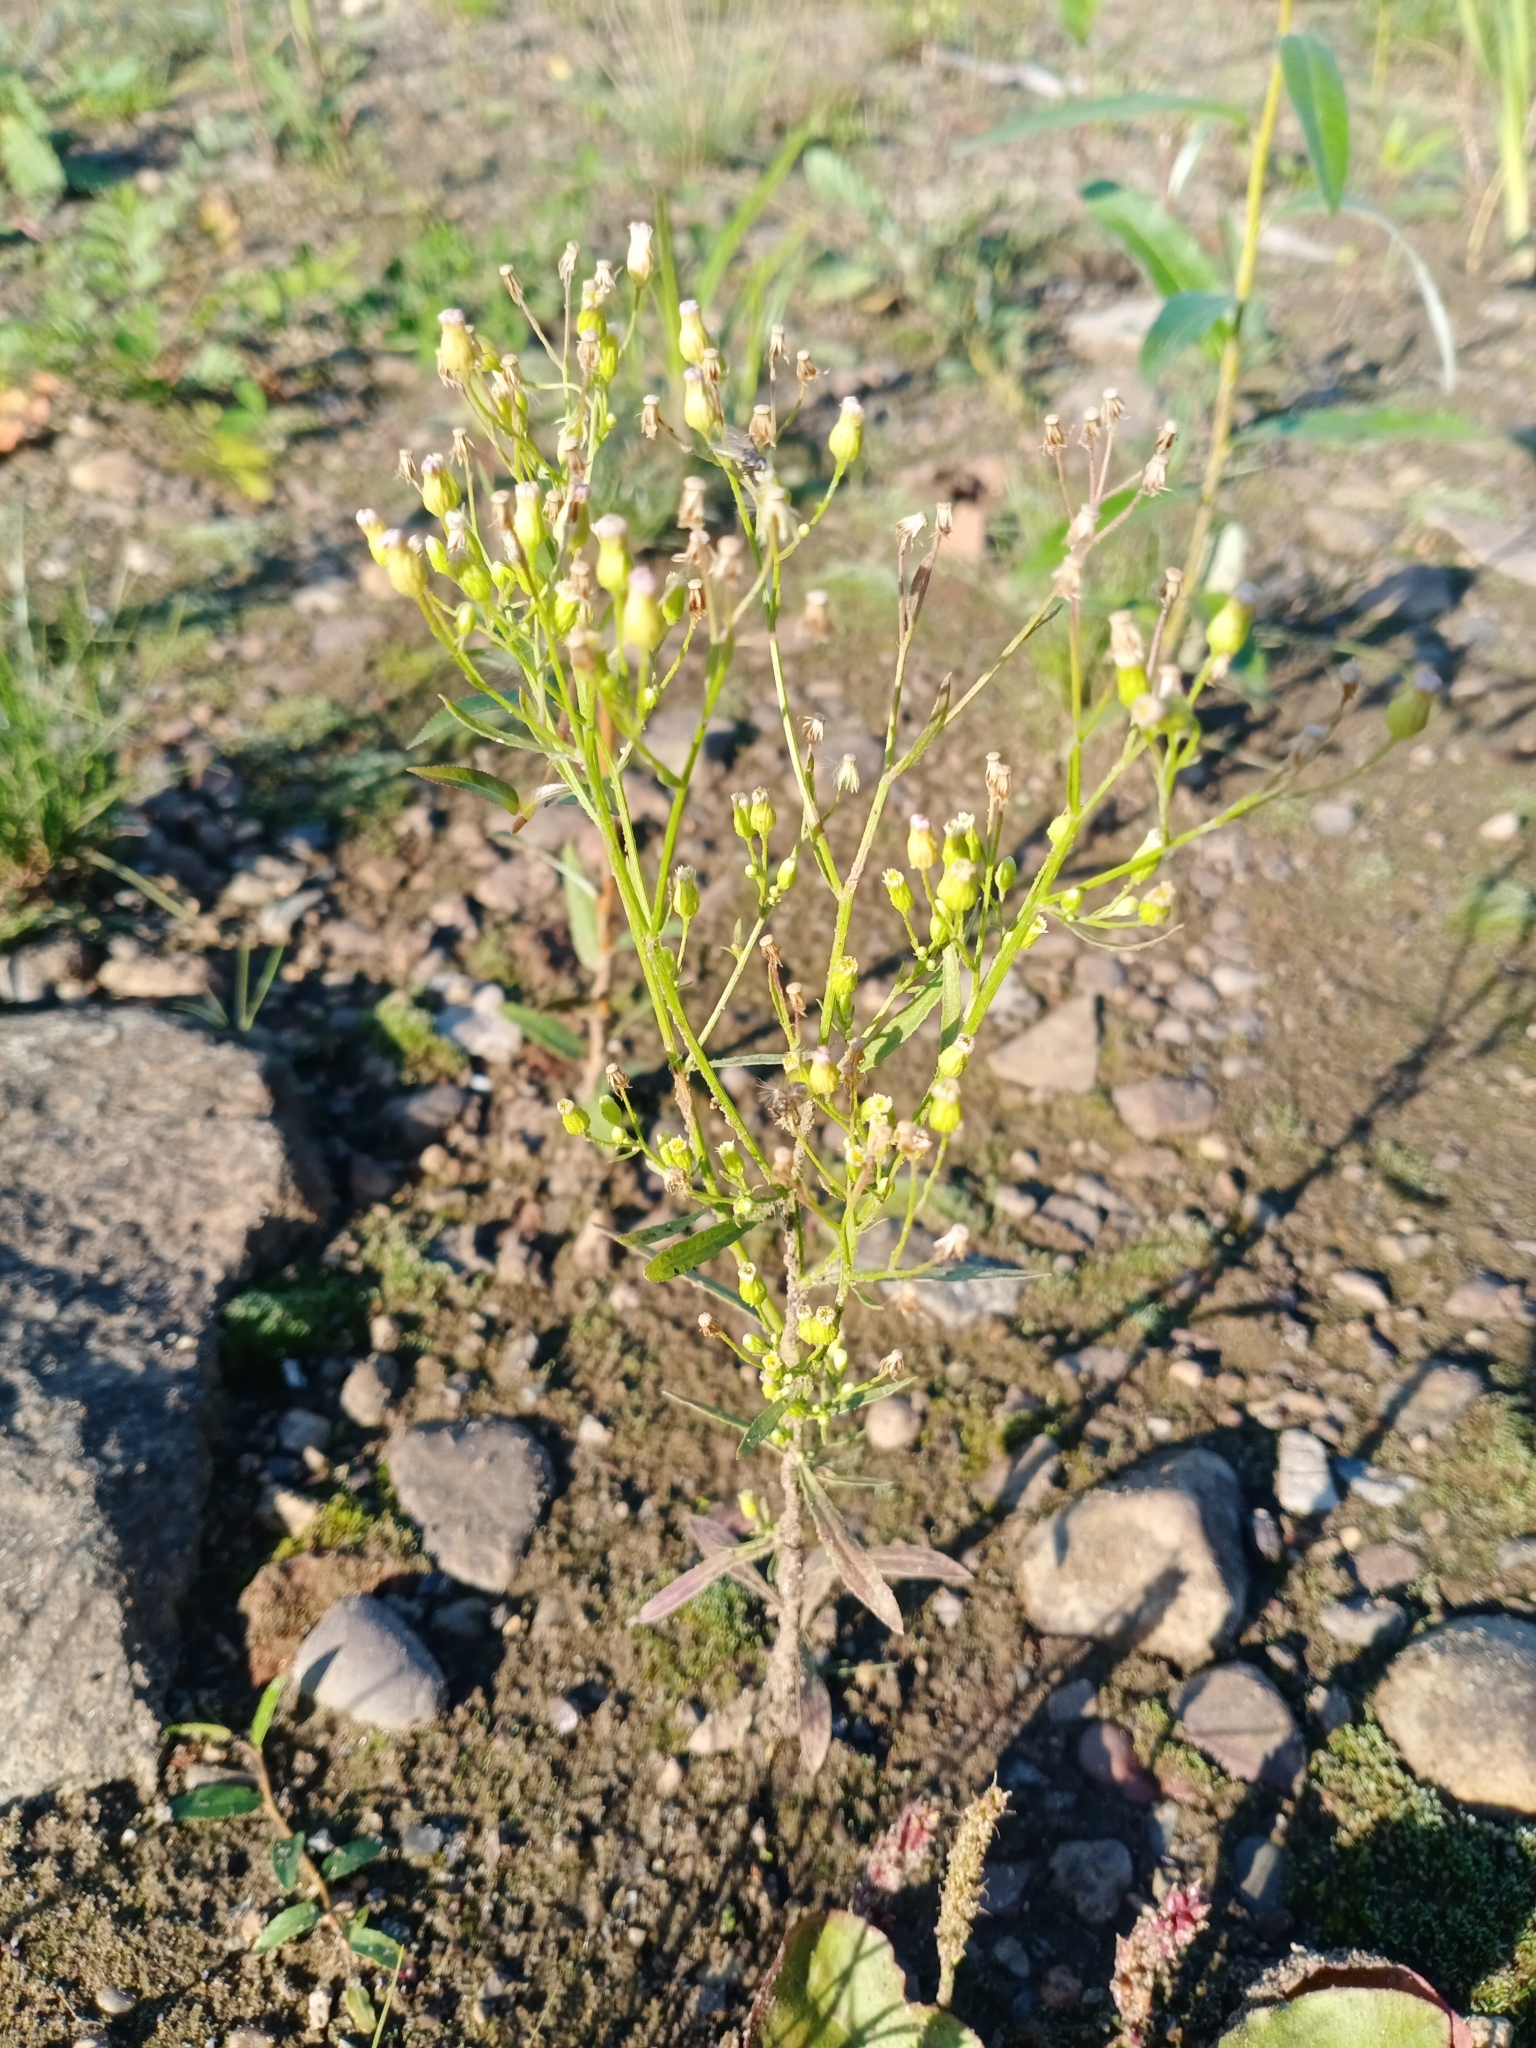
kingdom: Plantae
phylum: Tracheophyta
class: Magnoliopsida
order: Asterales
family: Asteraceae
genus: Erigeron
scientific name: Erigeron canadensis
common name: Canadian fleabane
